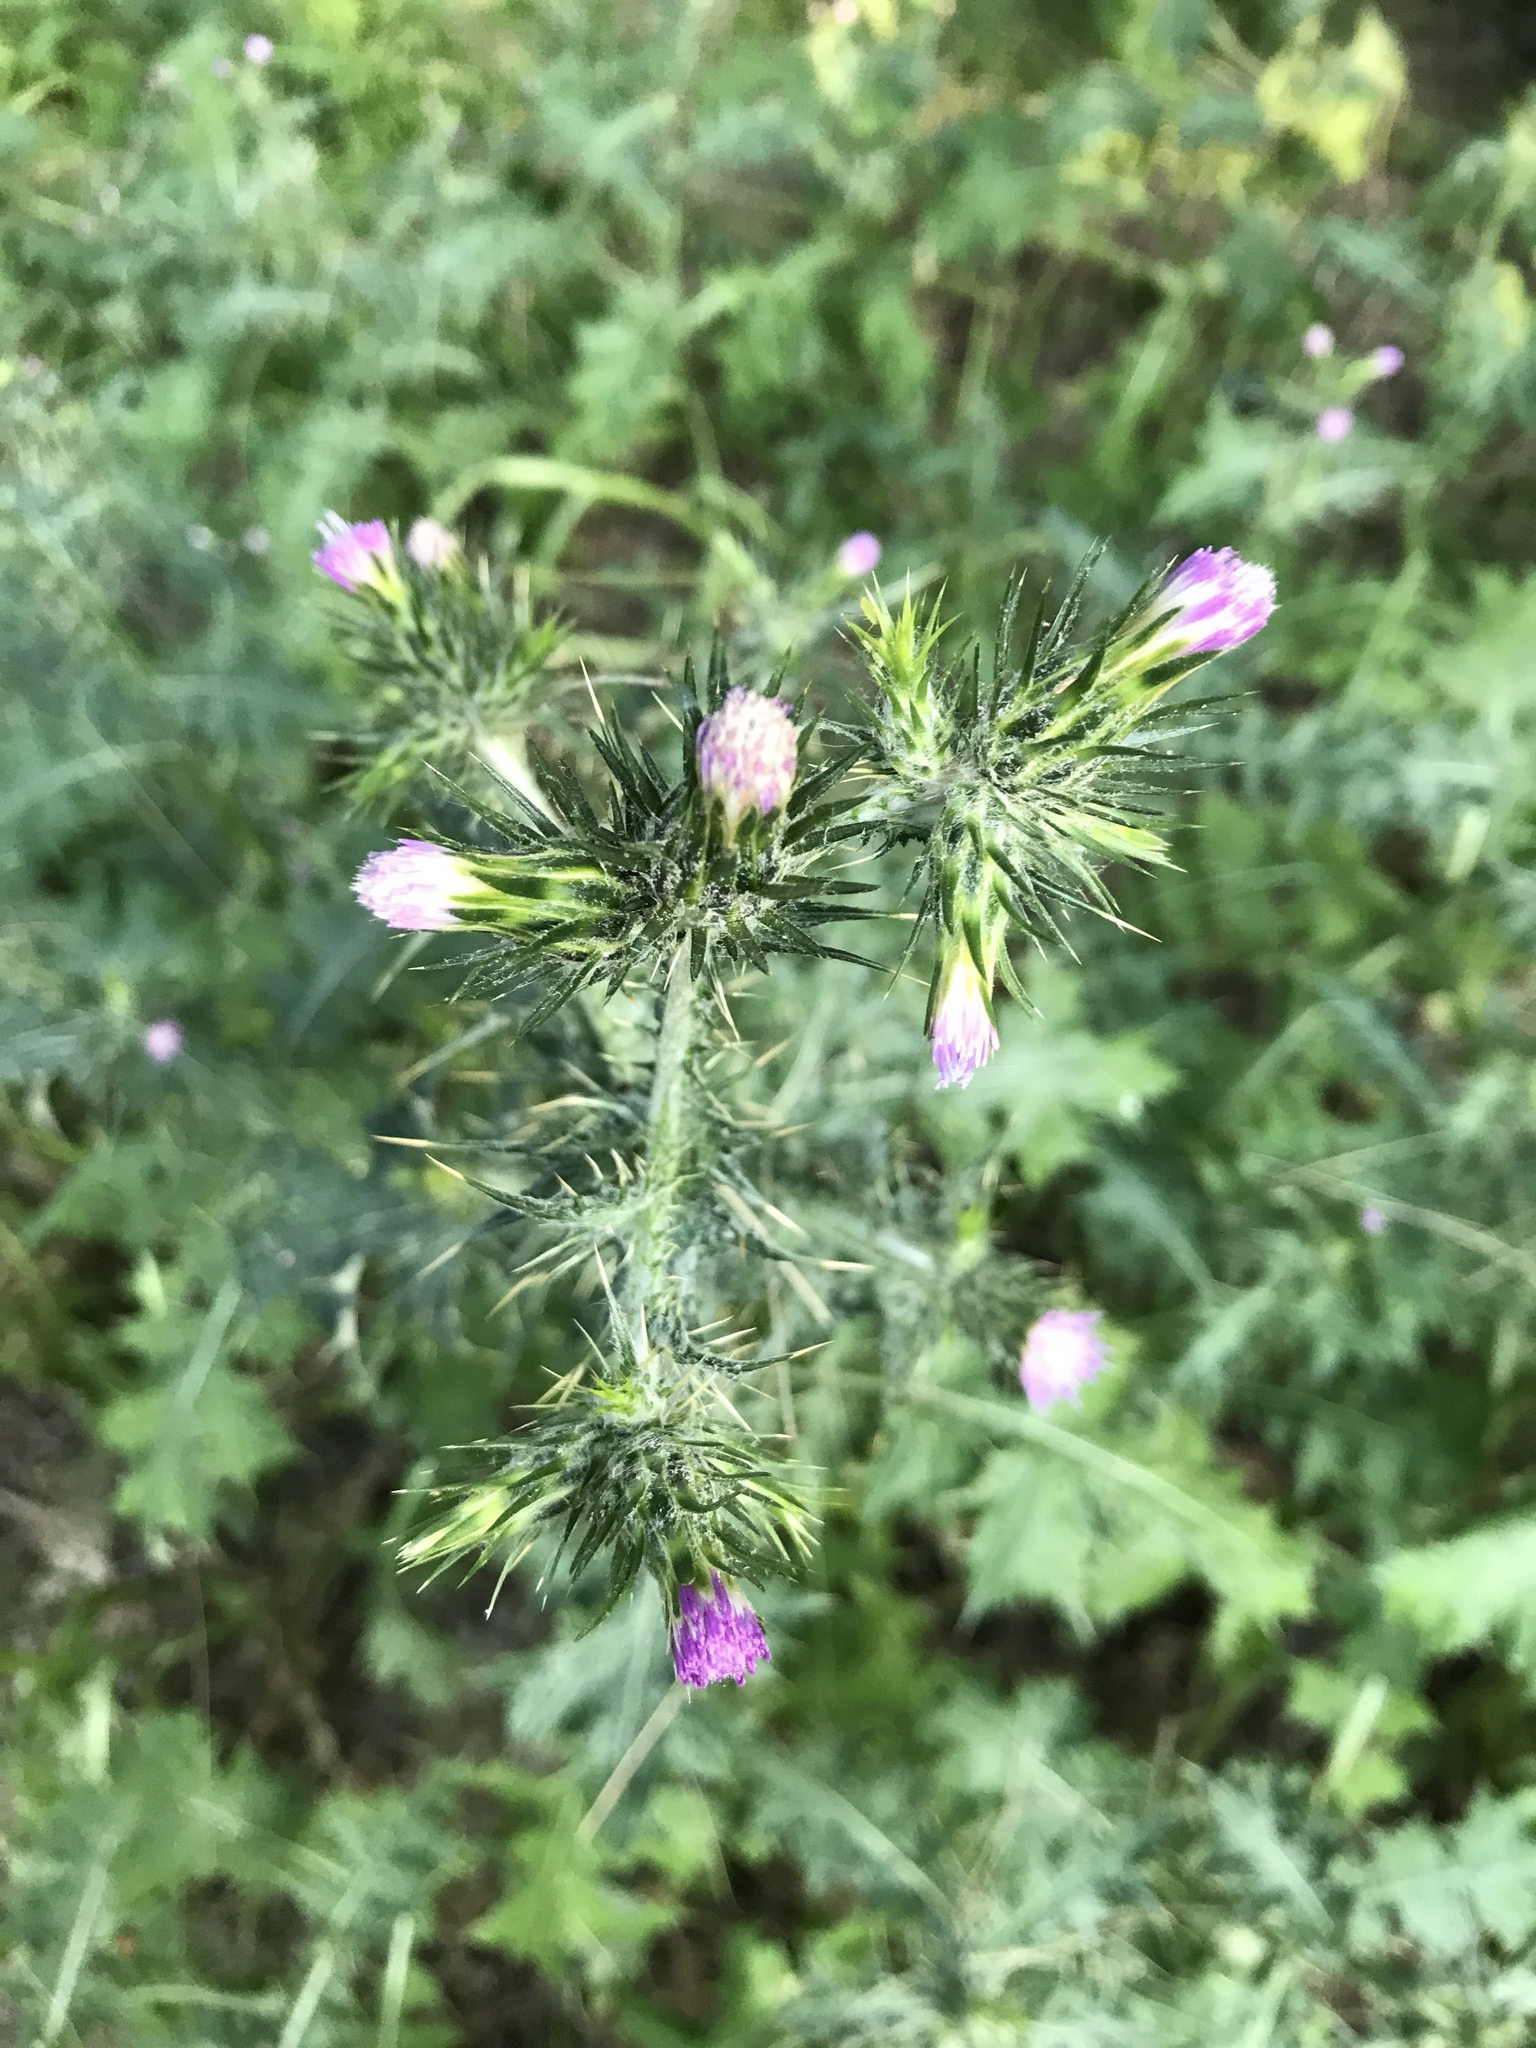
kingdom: Plantae
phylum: Tracheophyta
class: Magnoliopsida
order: Asterales
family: Asteraceae
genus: Carduus
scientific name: Carduus pycnocephalus
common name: Plymouth thistle
